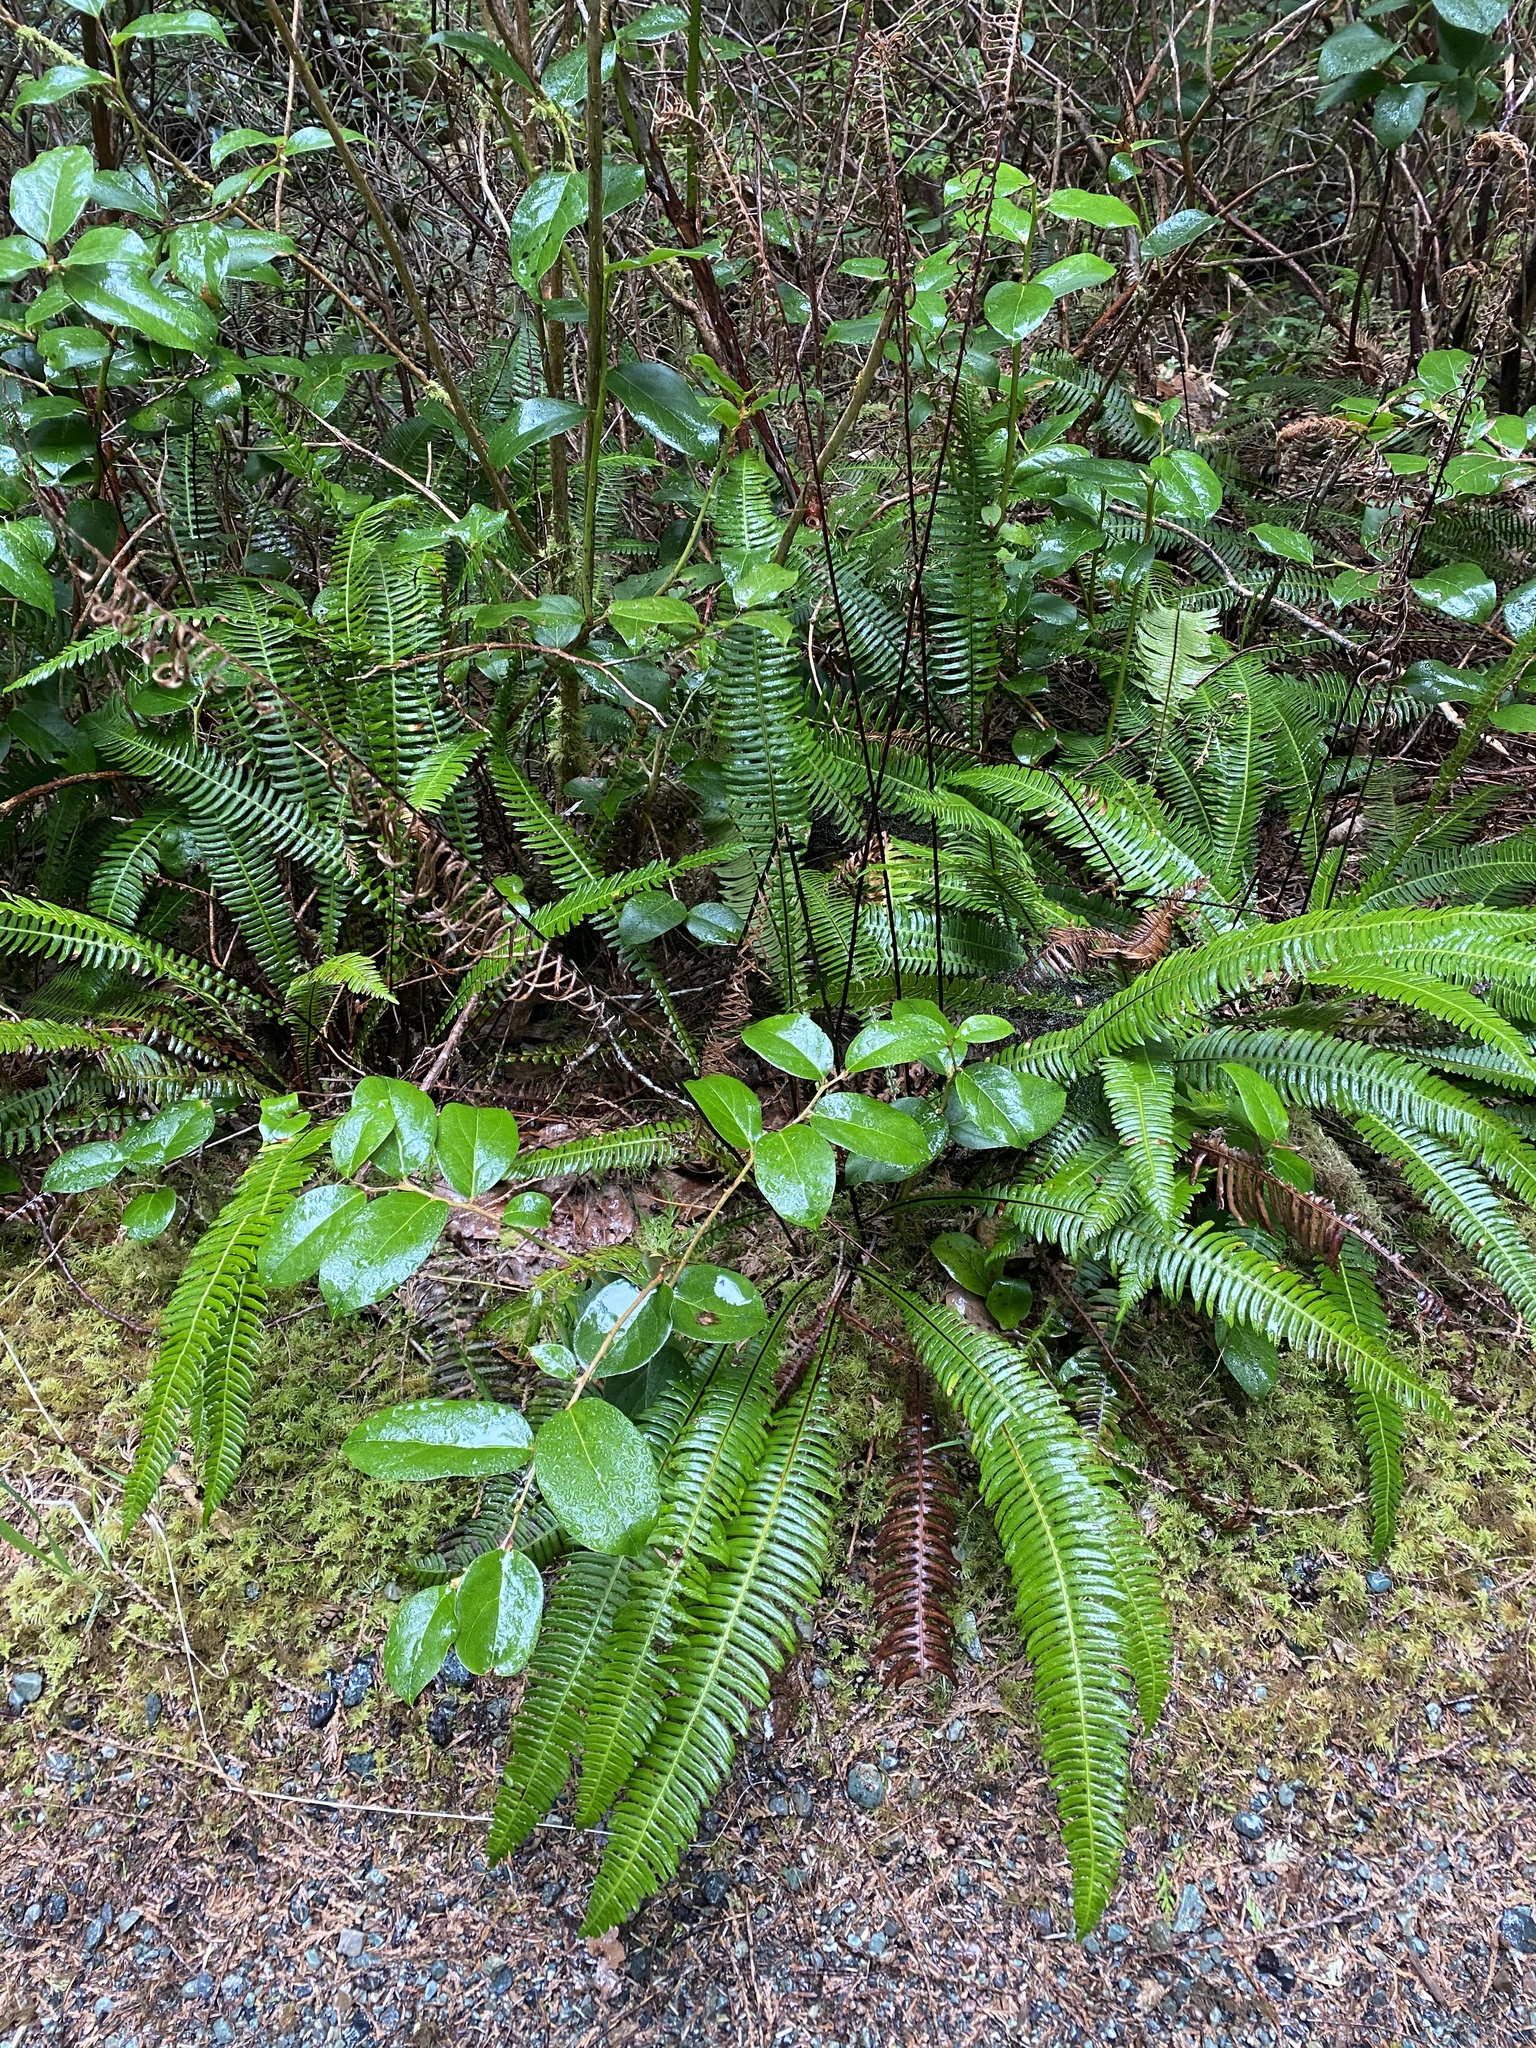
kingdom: Plantae
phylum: Tracheophyta
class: Polypodiopsida
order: Polypodiales
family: Blechnaceae
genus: Struthiopteris
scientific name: Struthiopteris spicant
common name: Deer fern
